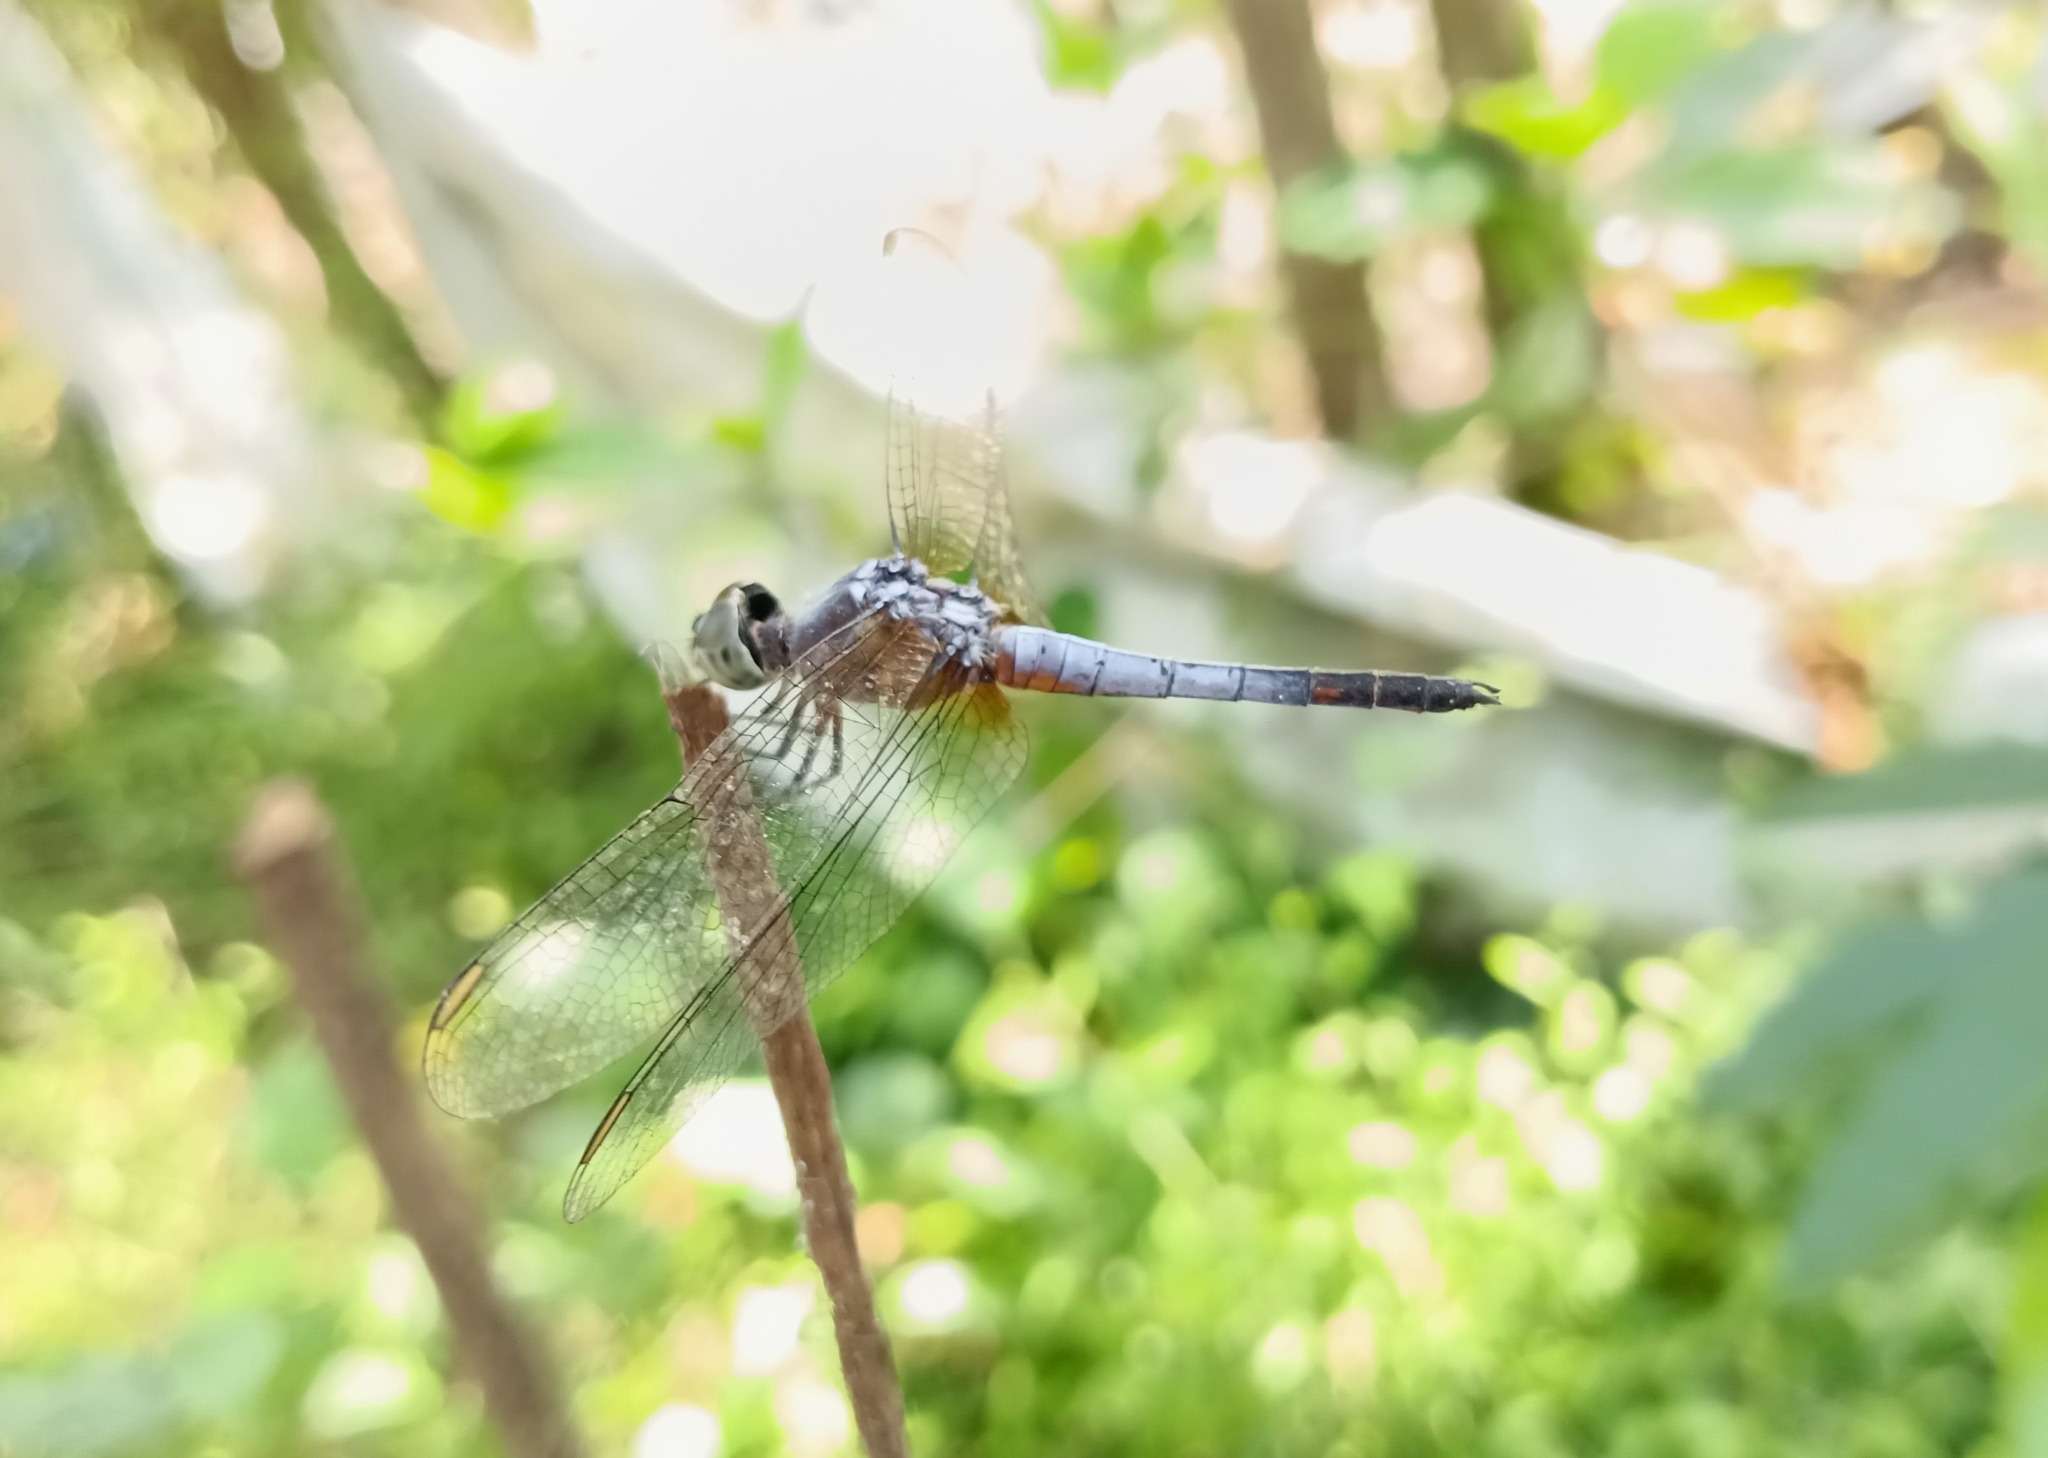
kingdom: Animalia
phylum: Arthropoda
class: Insecta
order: Odonata
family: Libellulidae
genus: Brachydiplax
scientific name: Brachydiplax chalybea
